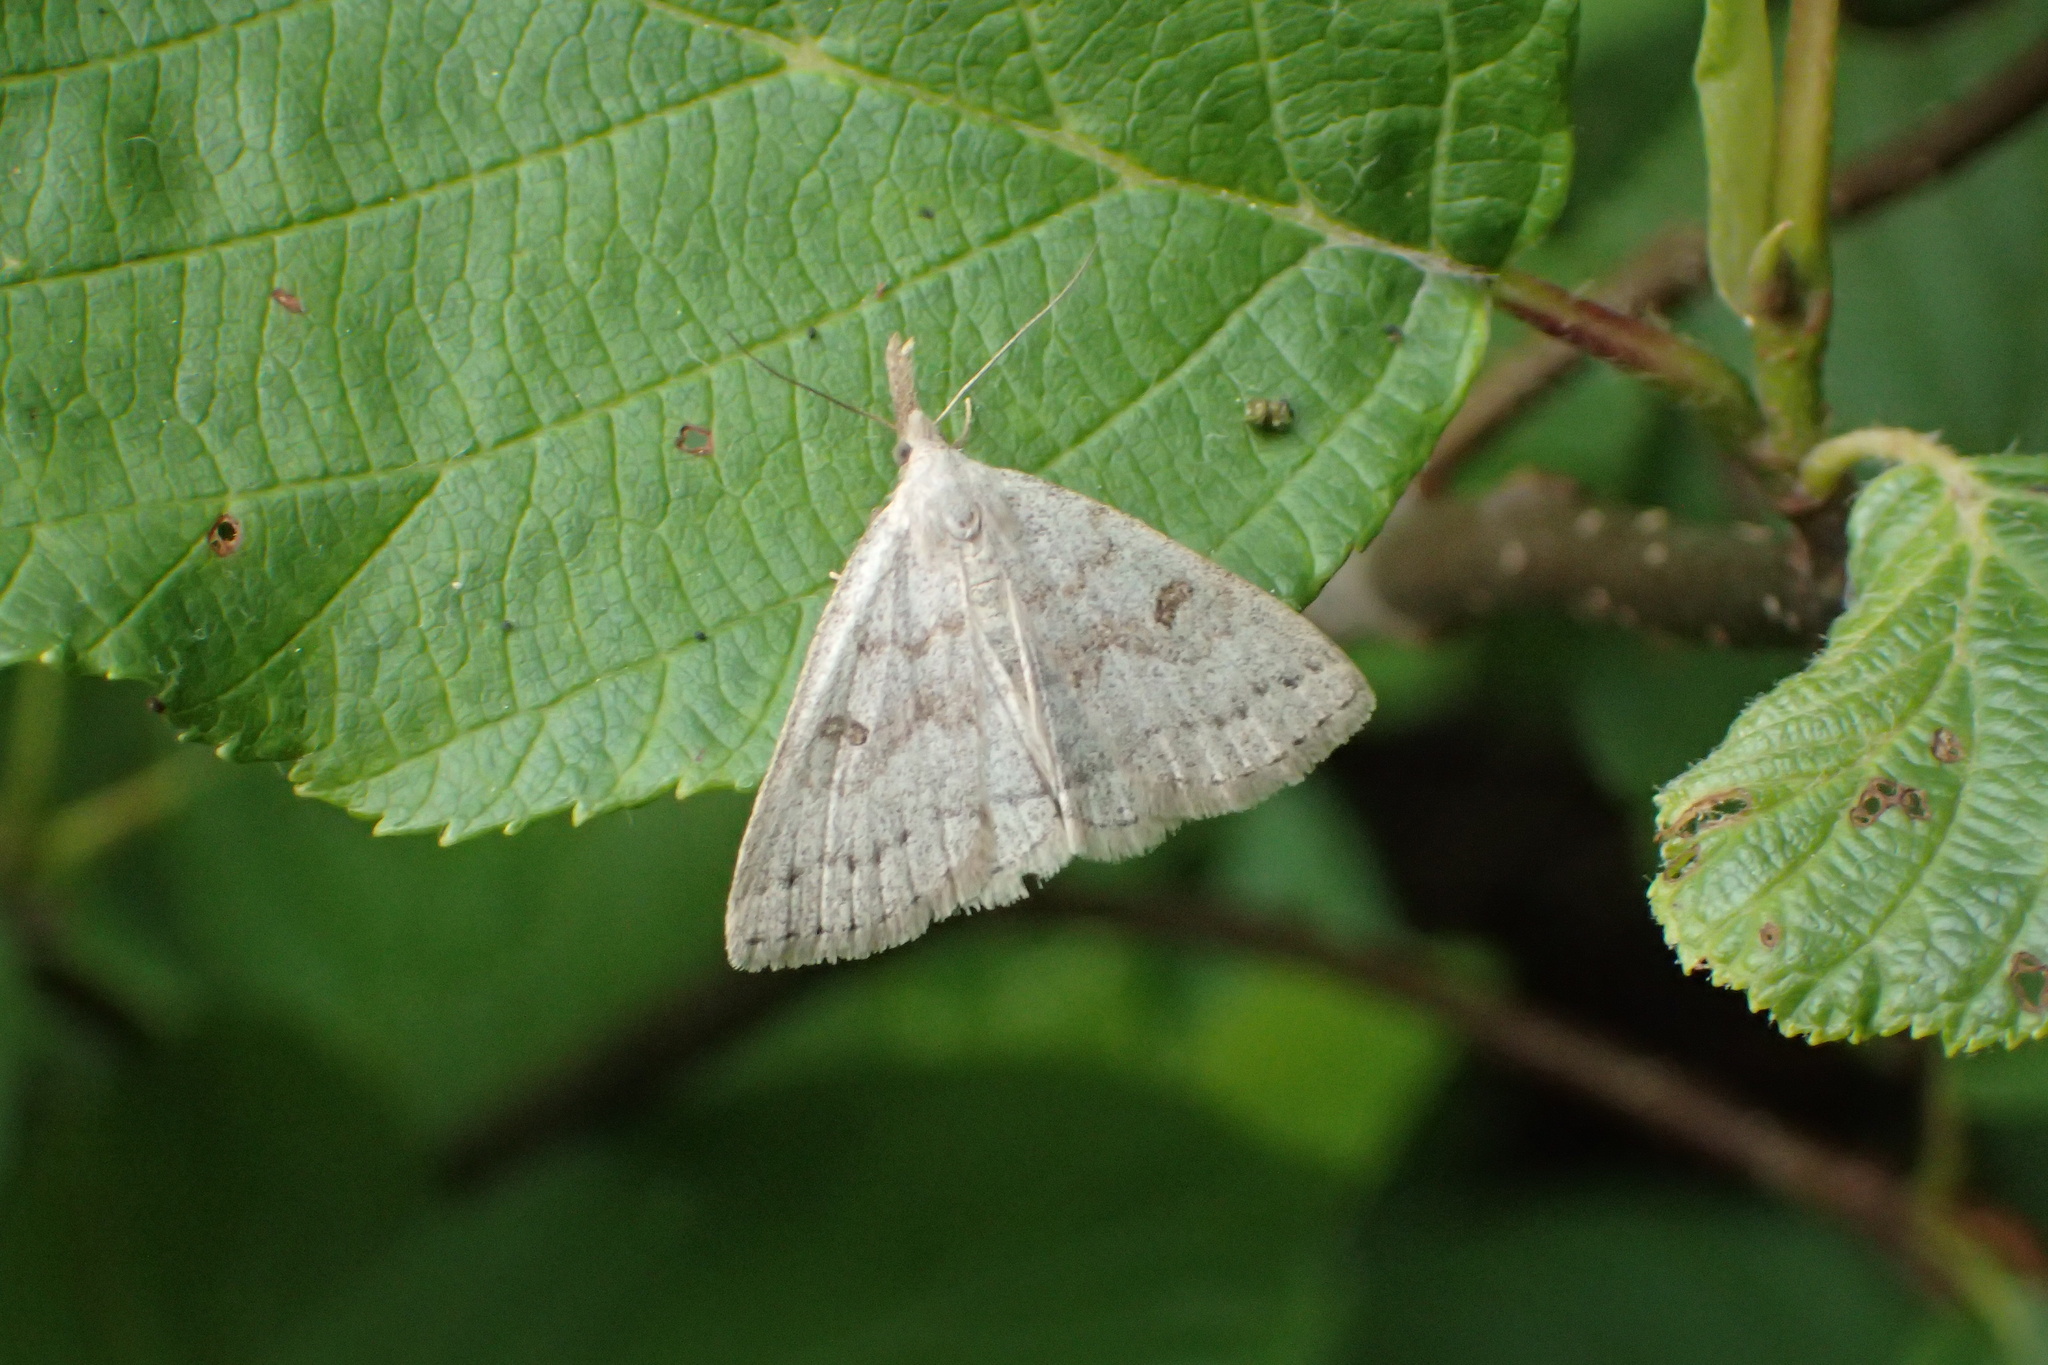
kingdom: Animalia
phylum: Arthropoda
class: Insecta
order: Lepidoptera
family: Erebidae
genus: Macrochilo
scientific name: Macrochilo morbidalis
